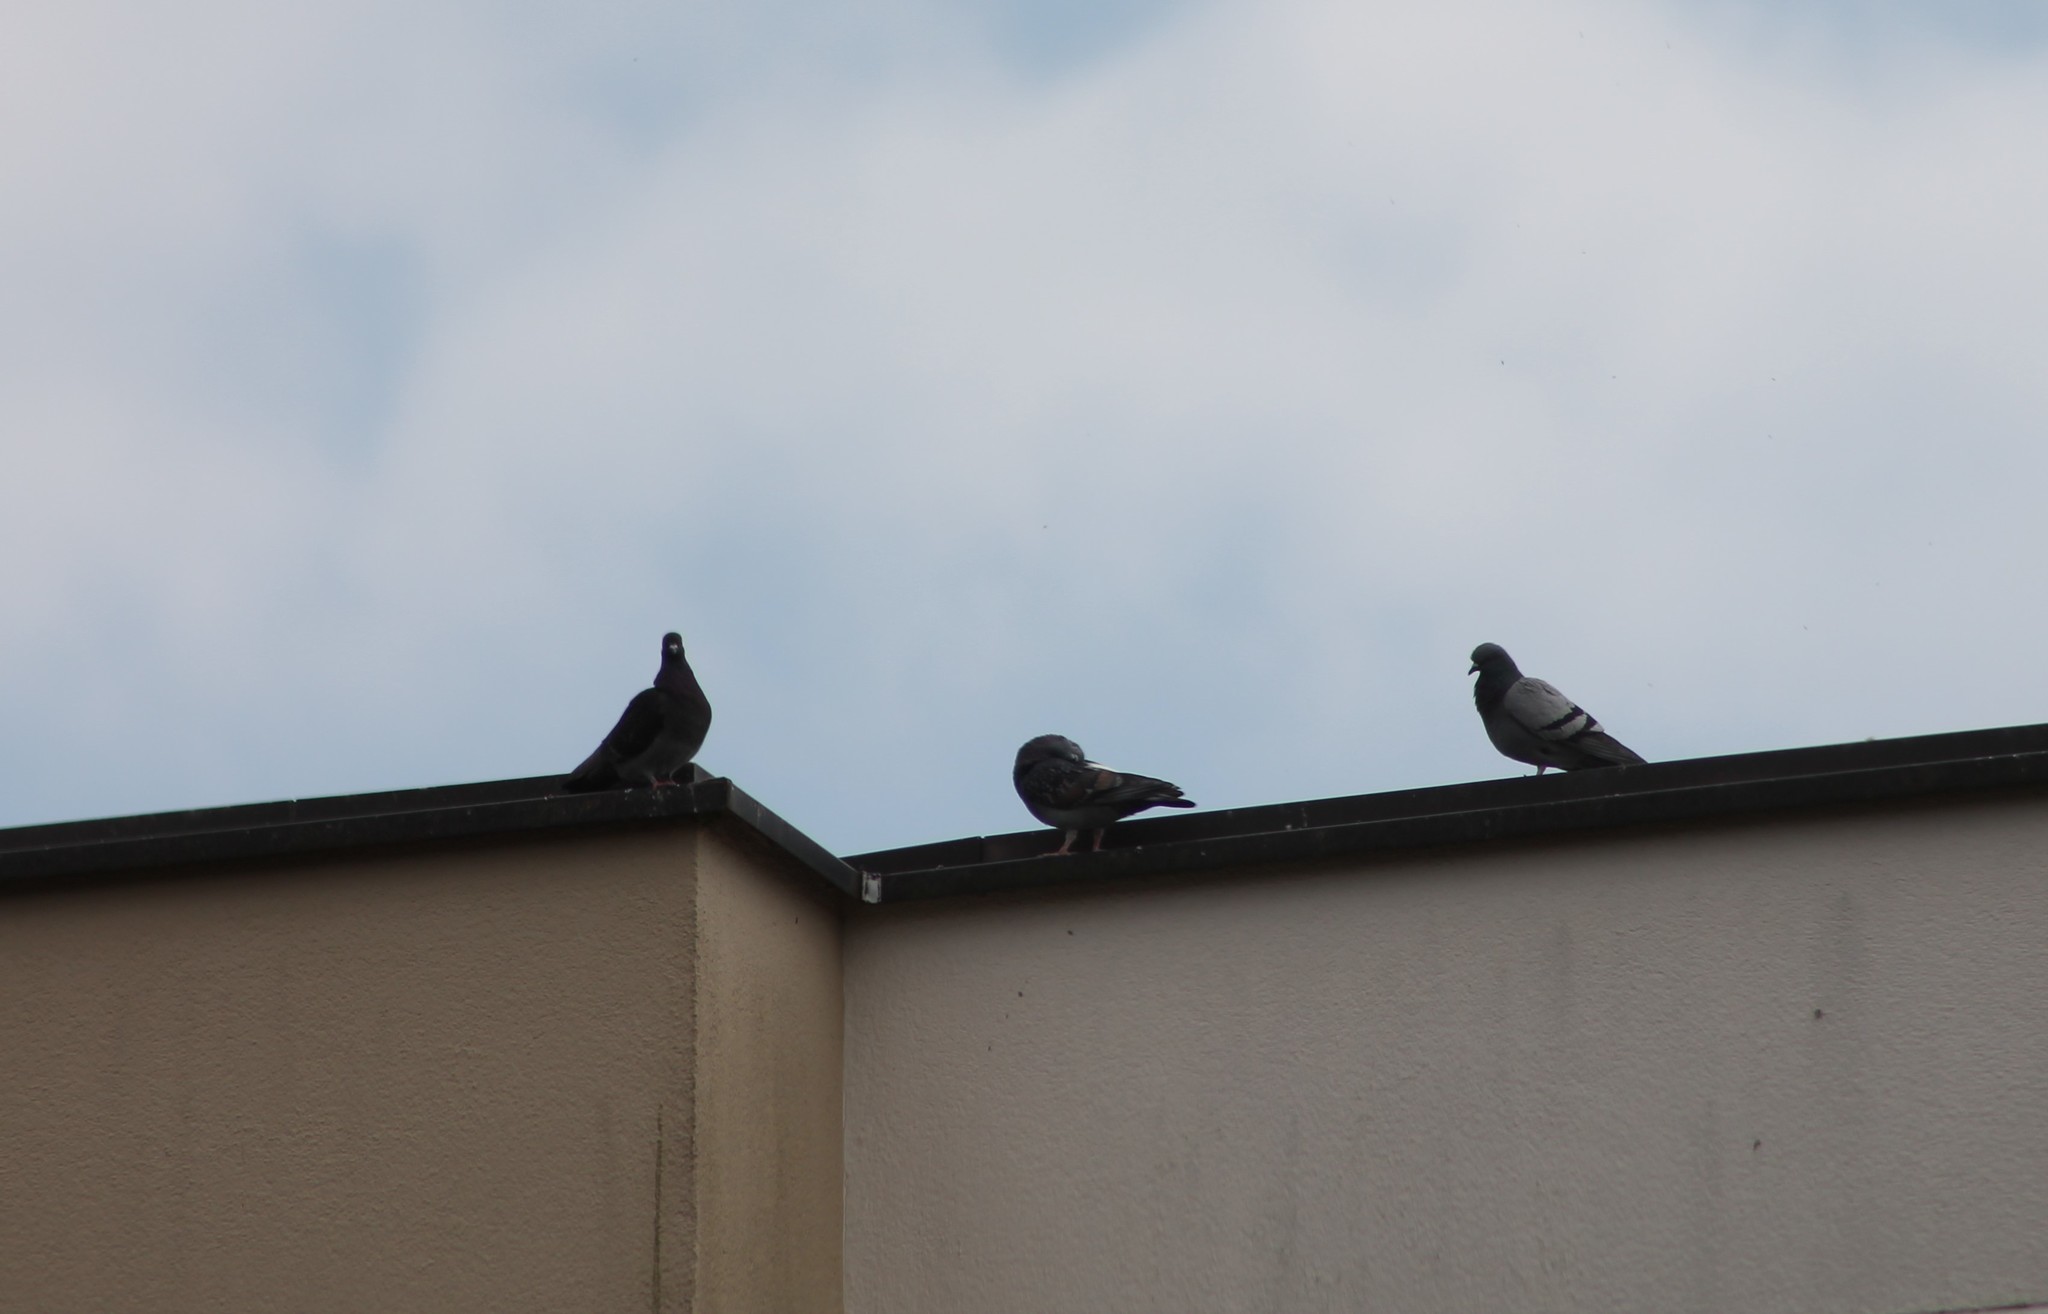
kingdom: Animalia
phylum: Chordata
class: Aves
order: Columbiformes
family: Columbidae
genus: Columba
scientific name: Columba livia
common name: Rock pigeon
